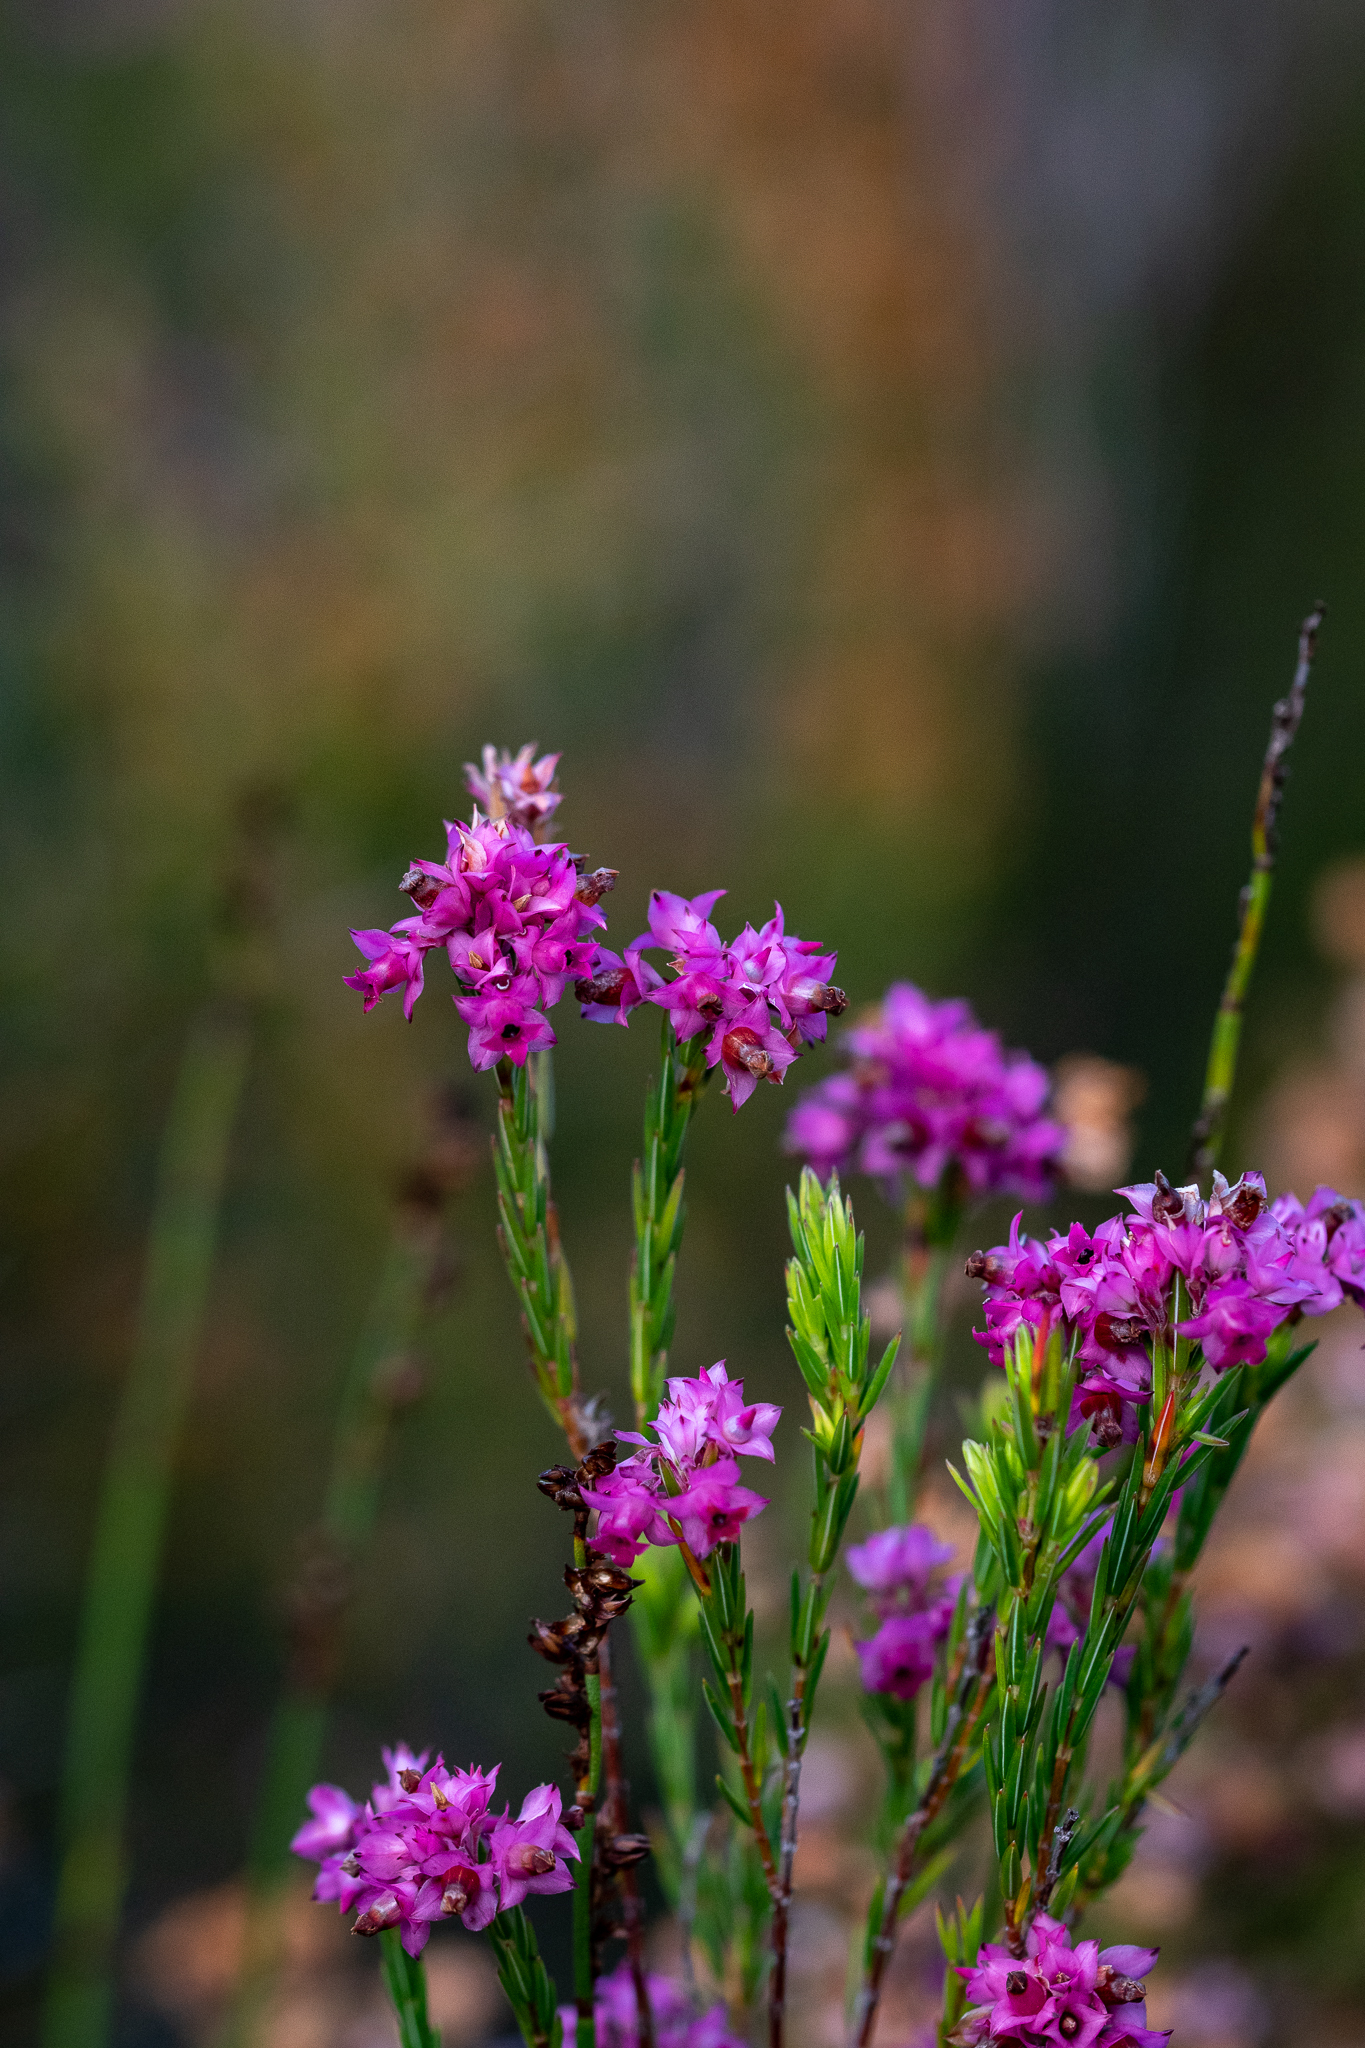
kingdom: Plantae
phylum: Tracheophyta
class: Magnoliopsida
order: Ericales
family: Ericaceae
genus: Erica
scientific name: Erica corifolia
